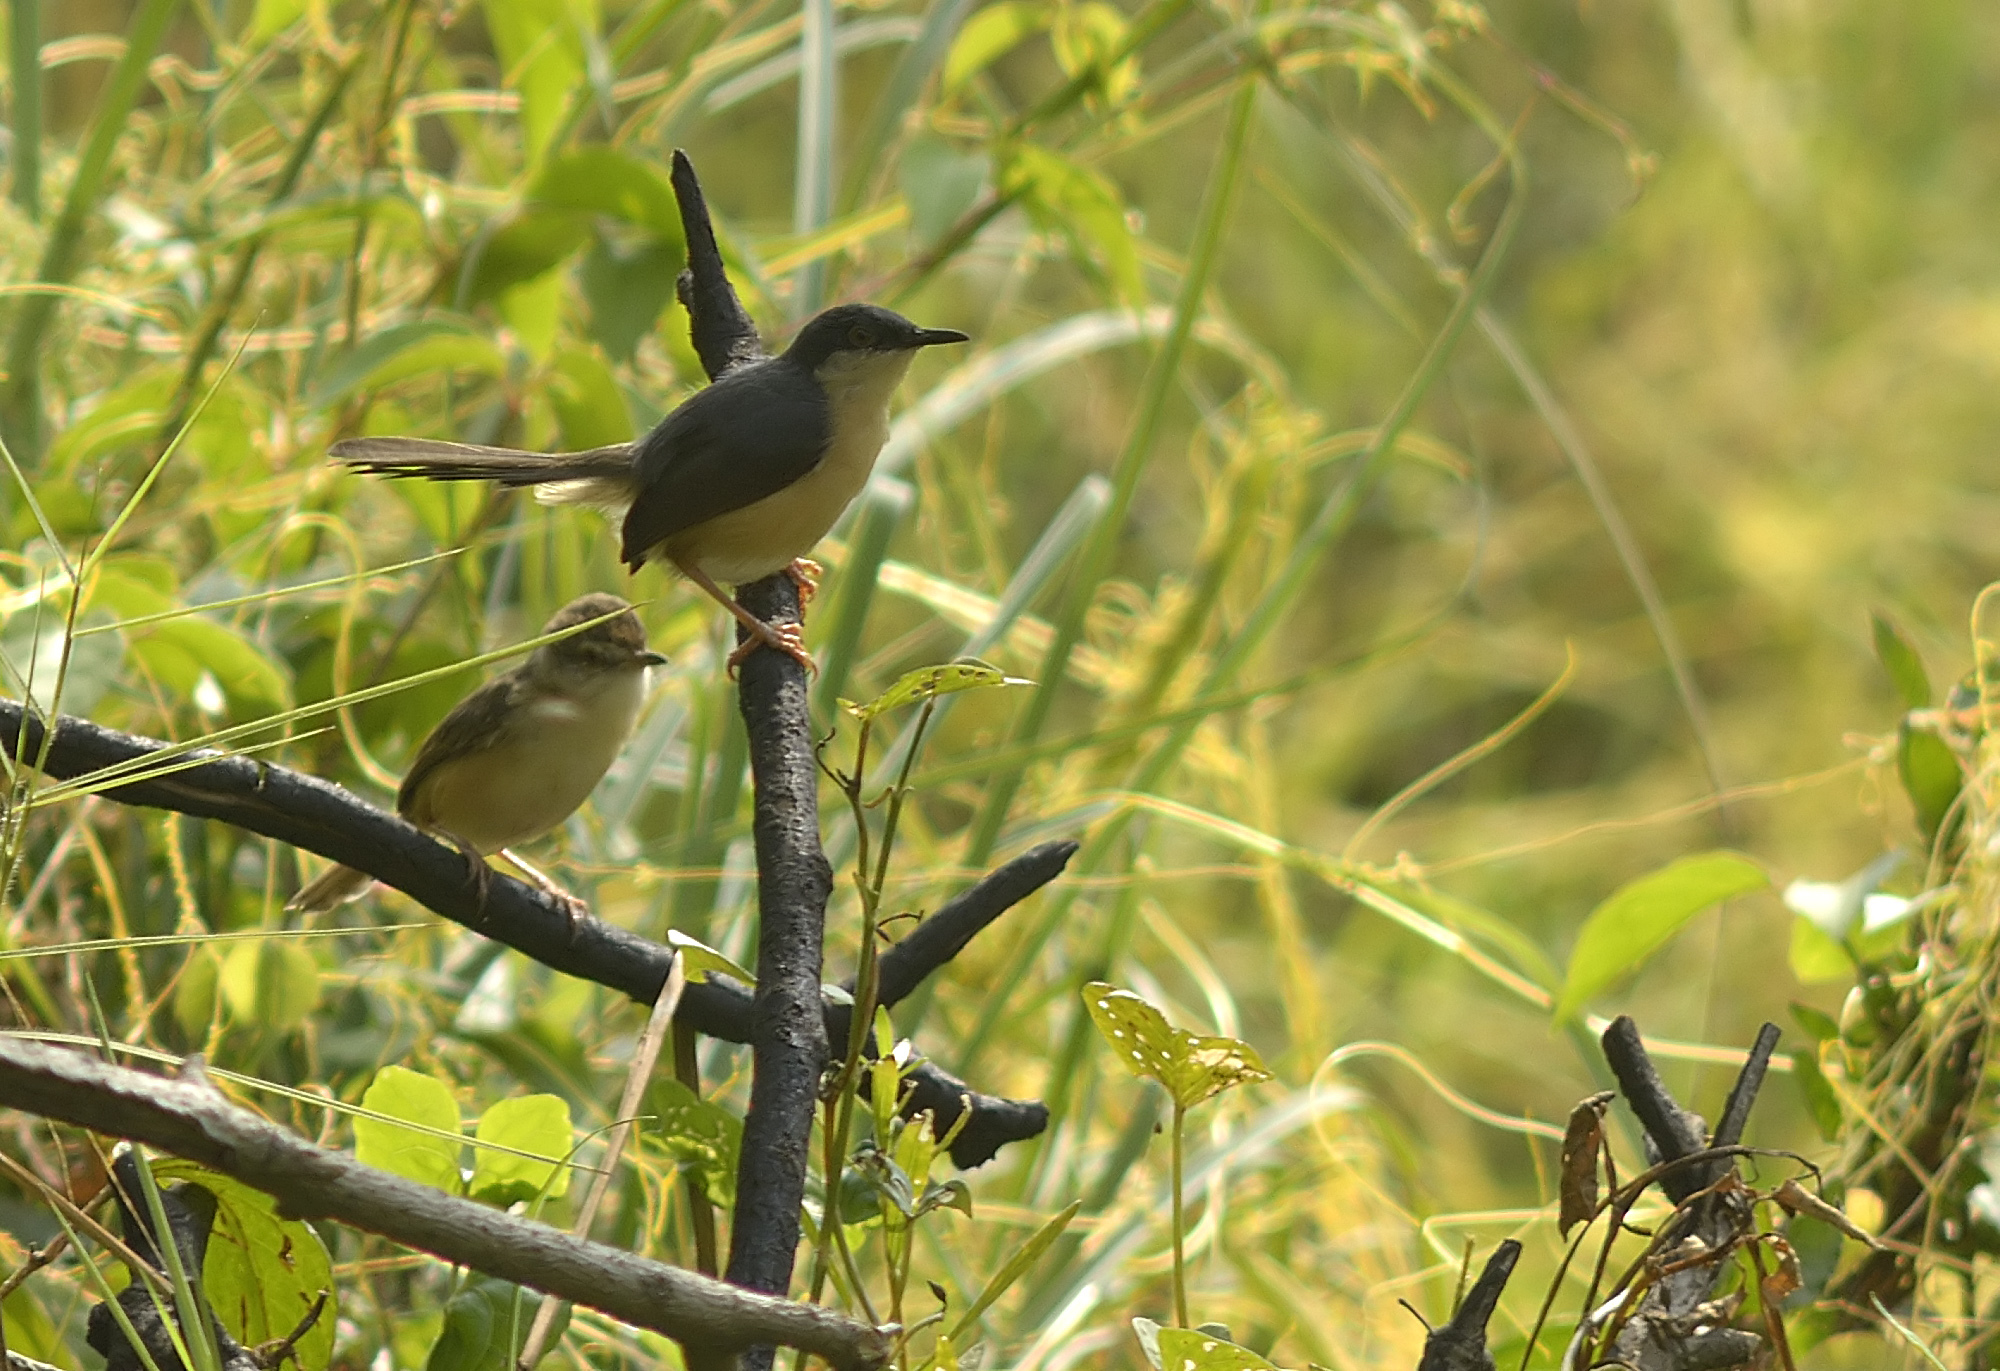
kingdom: Animalia
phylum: Chordata
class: Aves
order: Passeriformes
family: Cisticolidae
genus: Prinia
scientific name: Prinia socialis
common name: Ashy prinia
